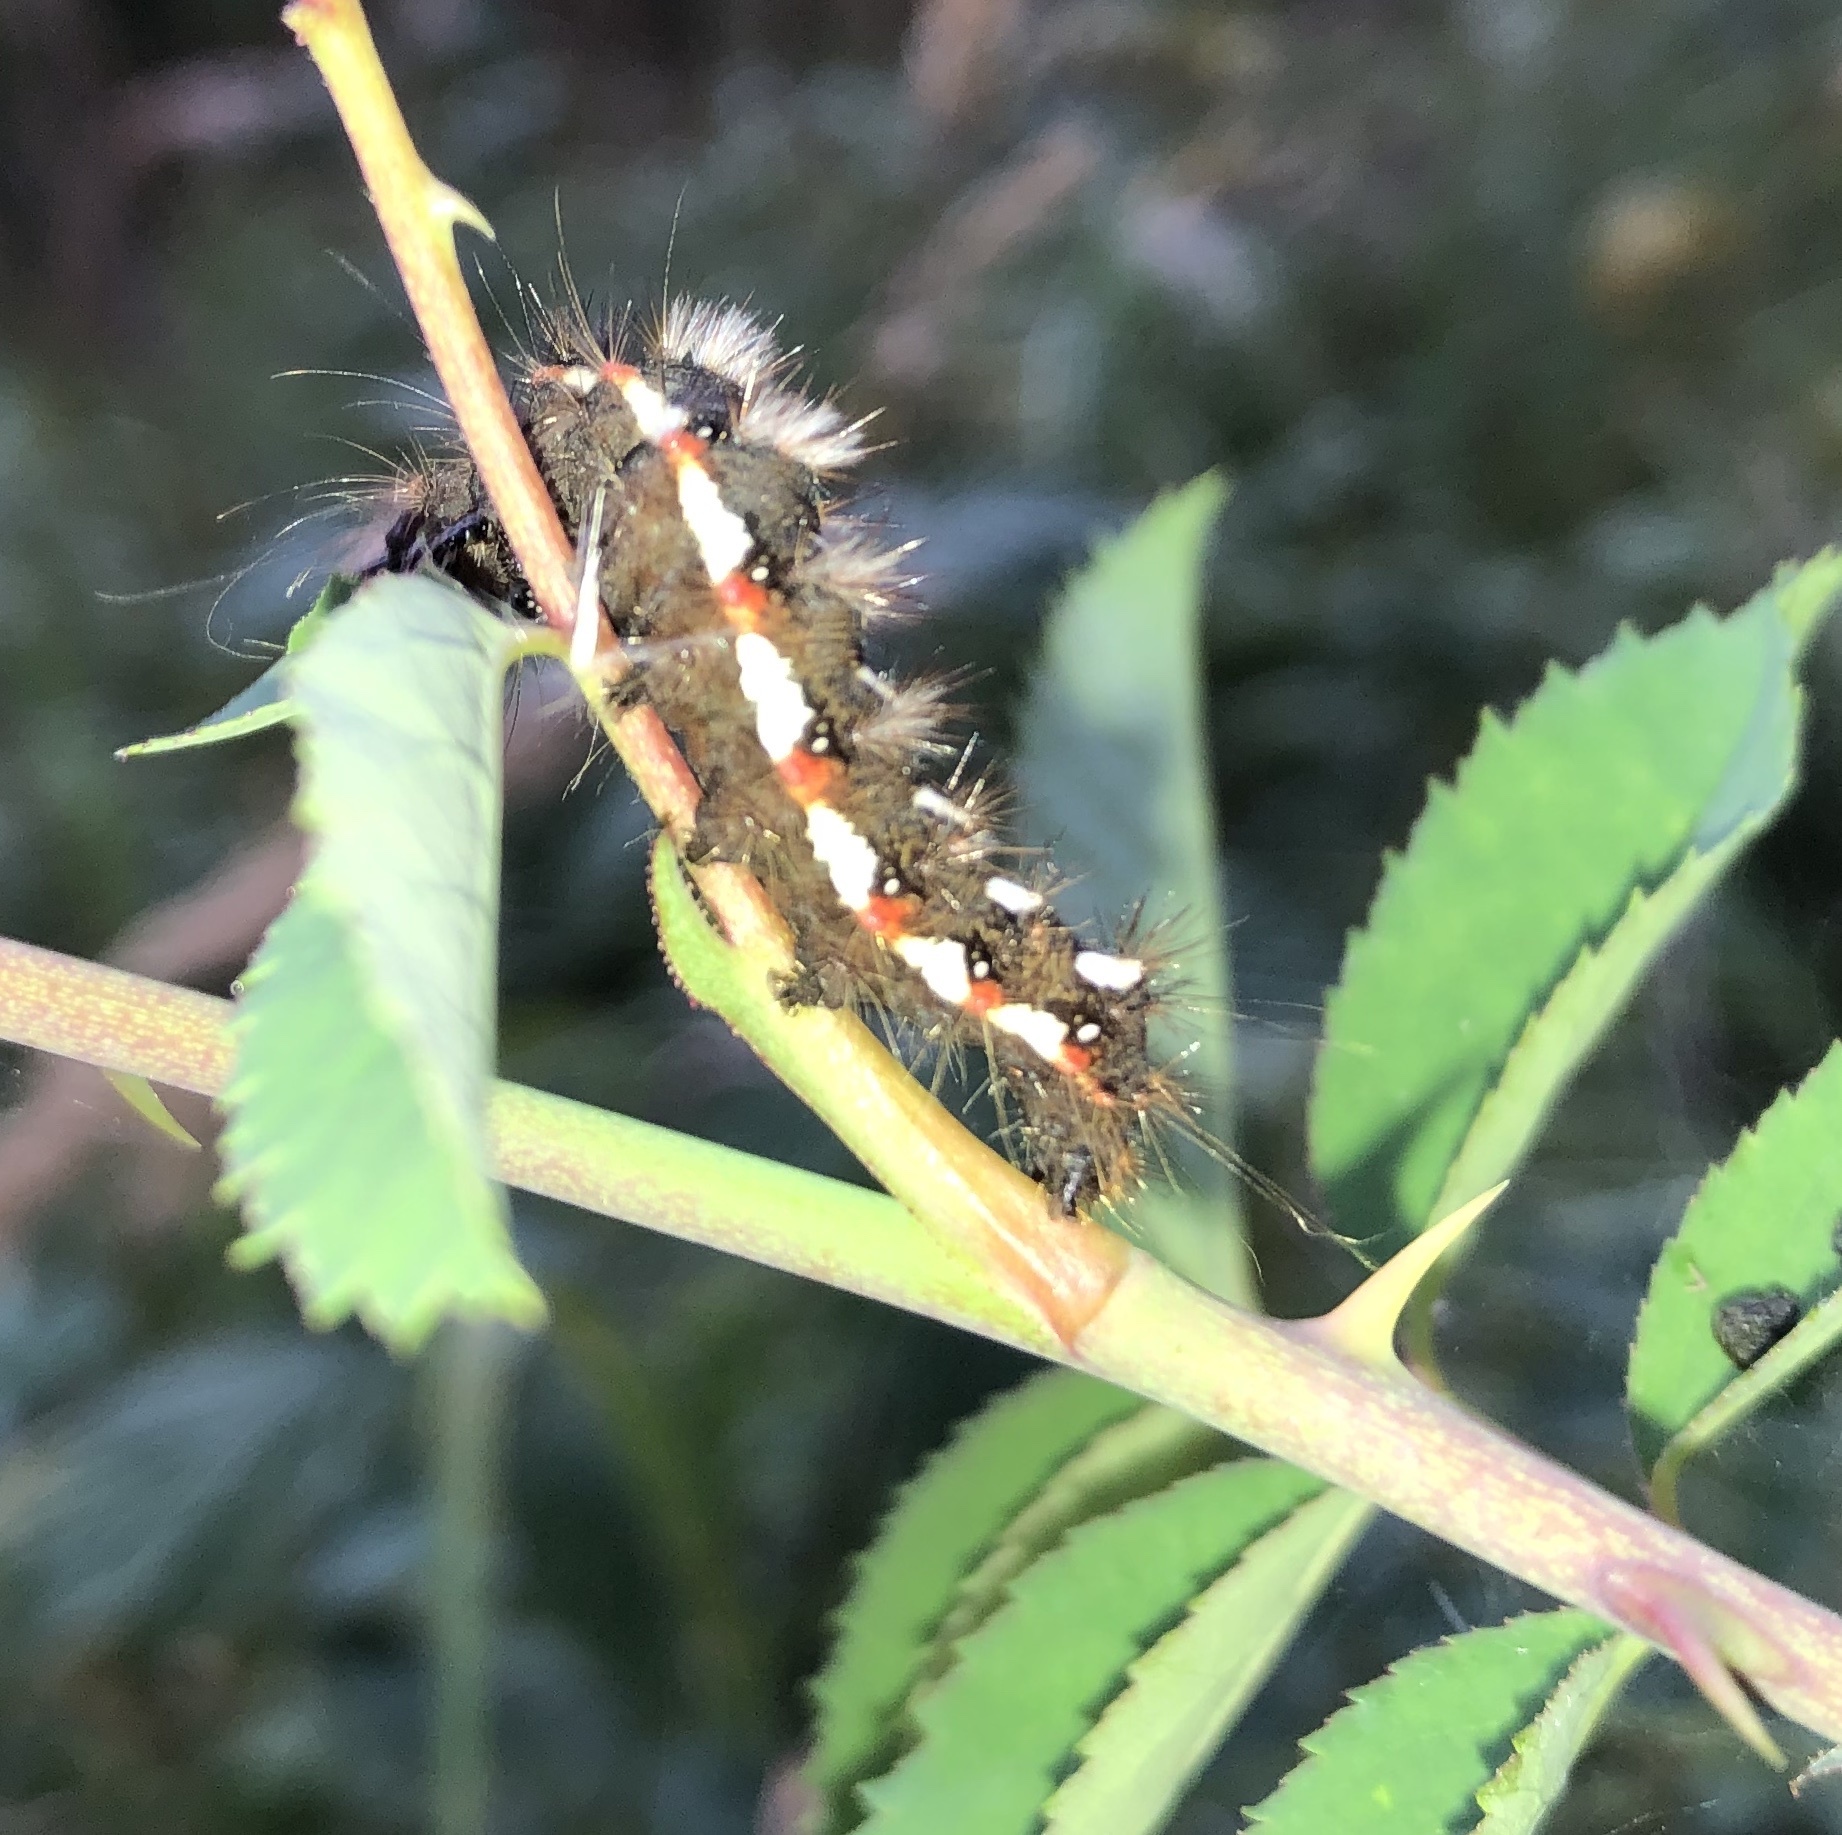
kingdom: Animalia
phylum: Arthropoda
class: Insecta
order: Lepidoptera
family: Noctuidae
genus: Acronicta
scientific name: Acronicta rumicis
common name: Knot grass
